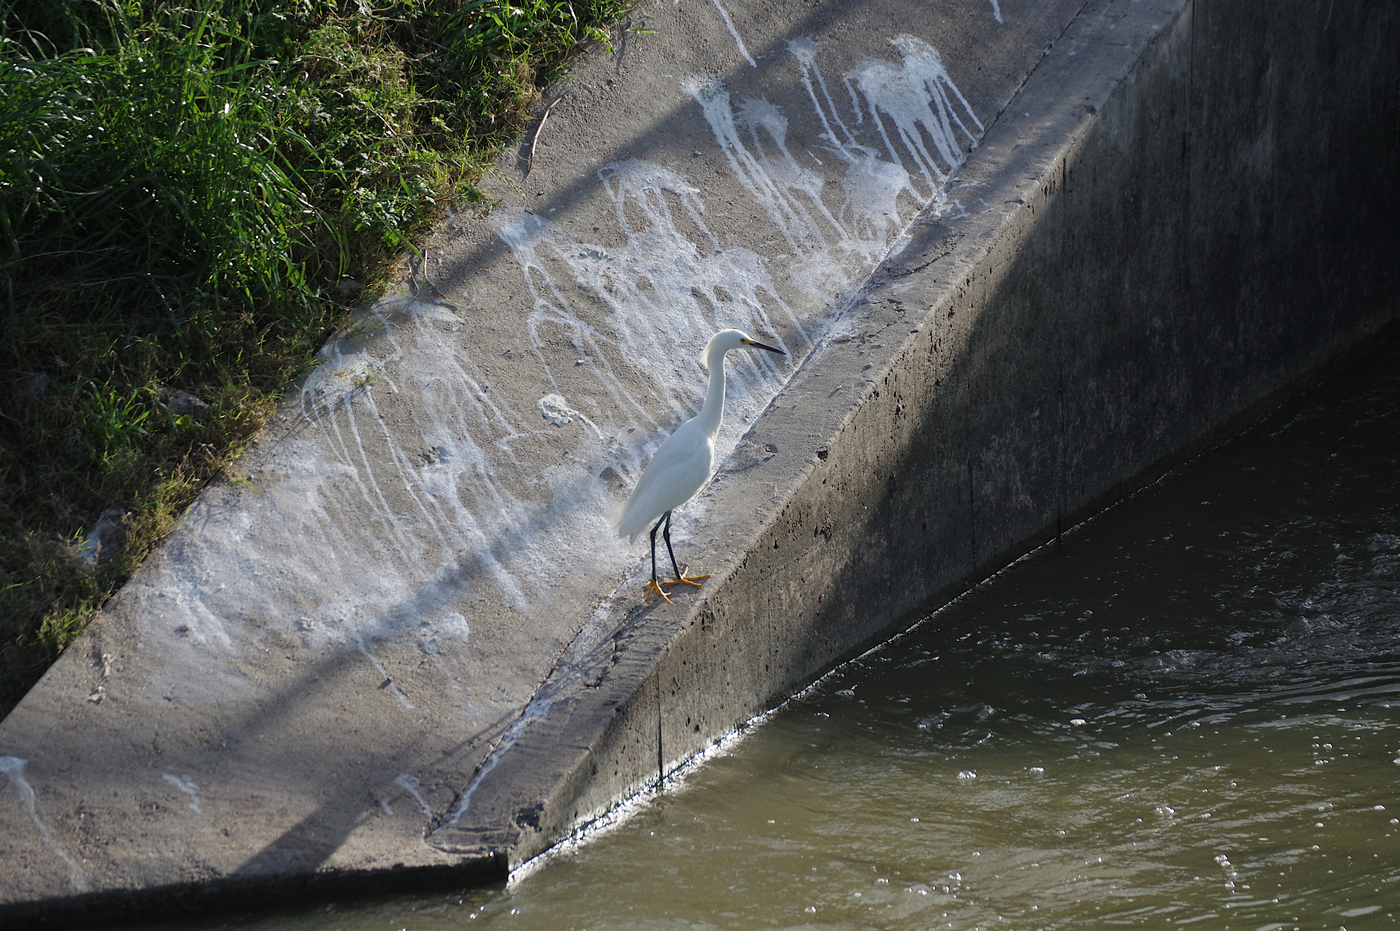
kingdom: Animalia
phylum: Chordata
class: Aves
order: Pelecaniformes
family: Ardeidae
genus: Egretta
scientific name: Egretta thula
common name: Snowy egret
